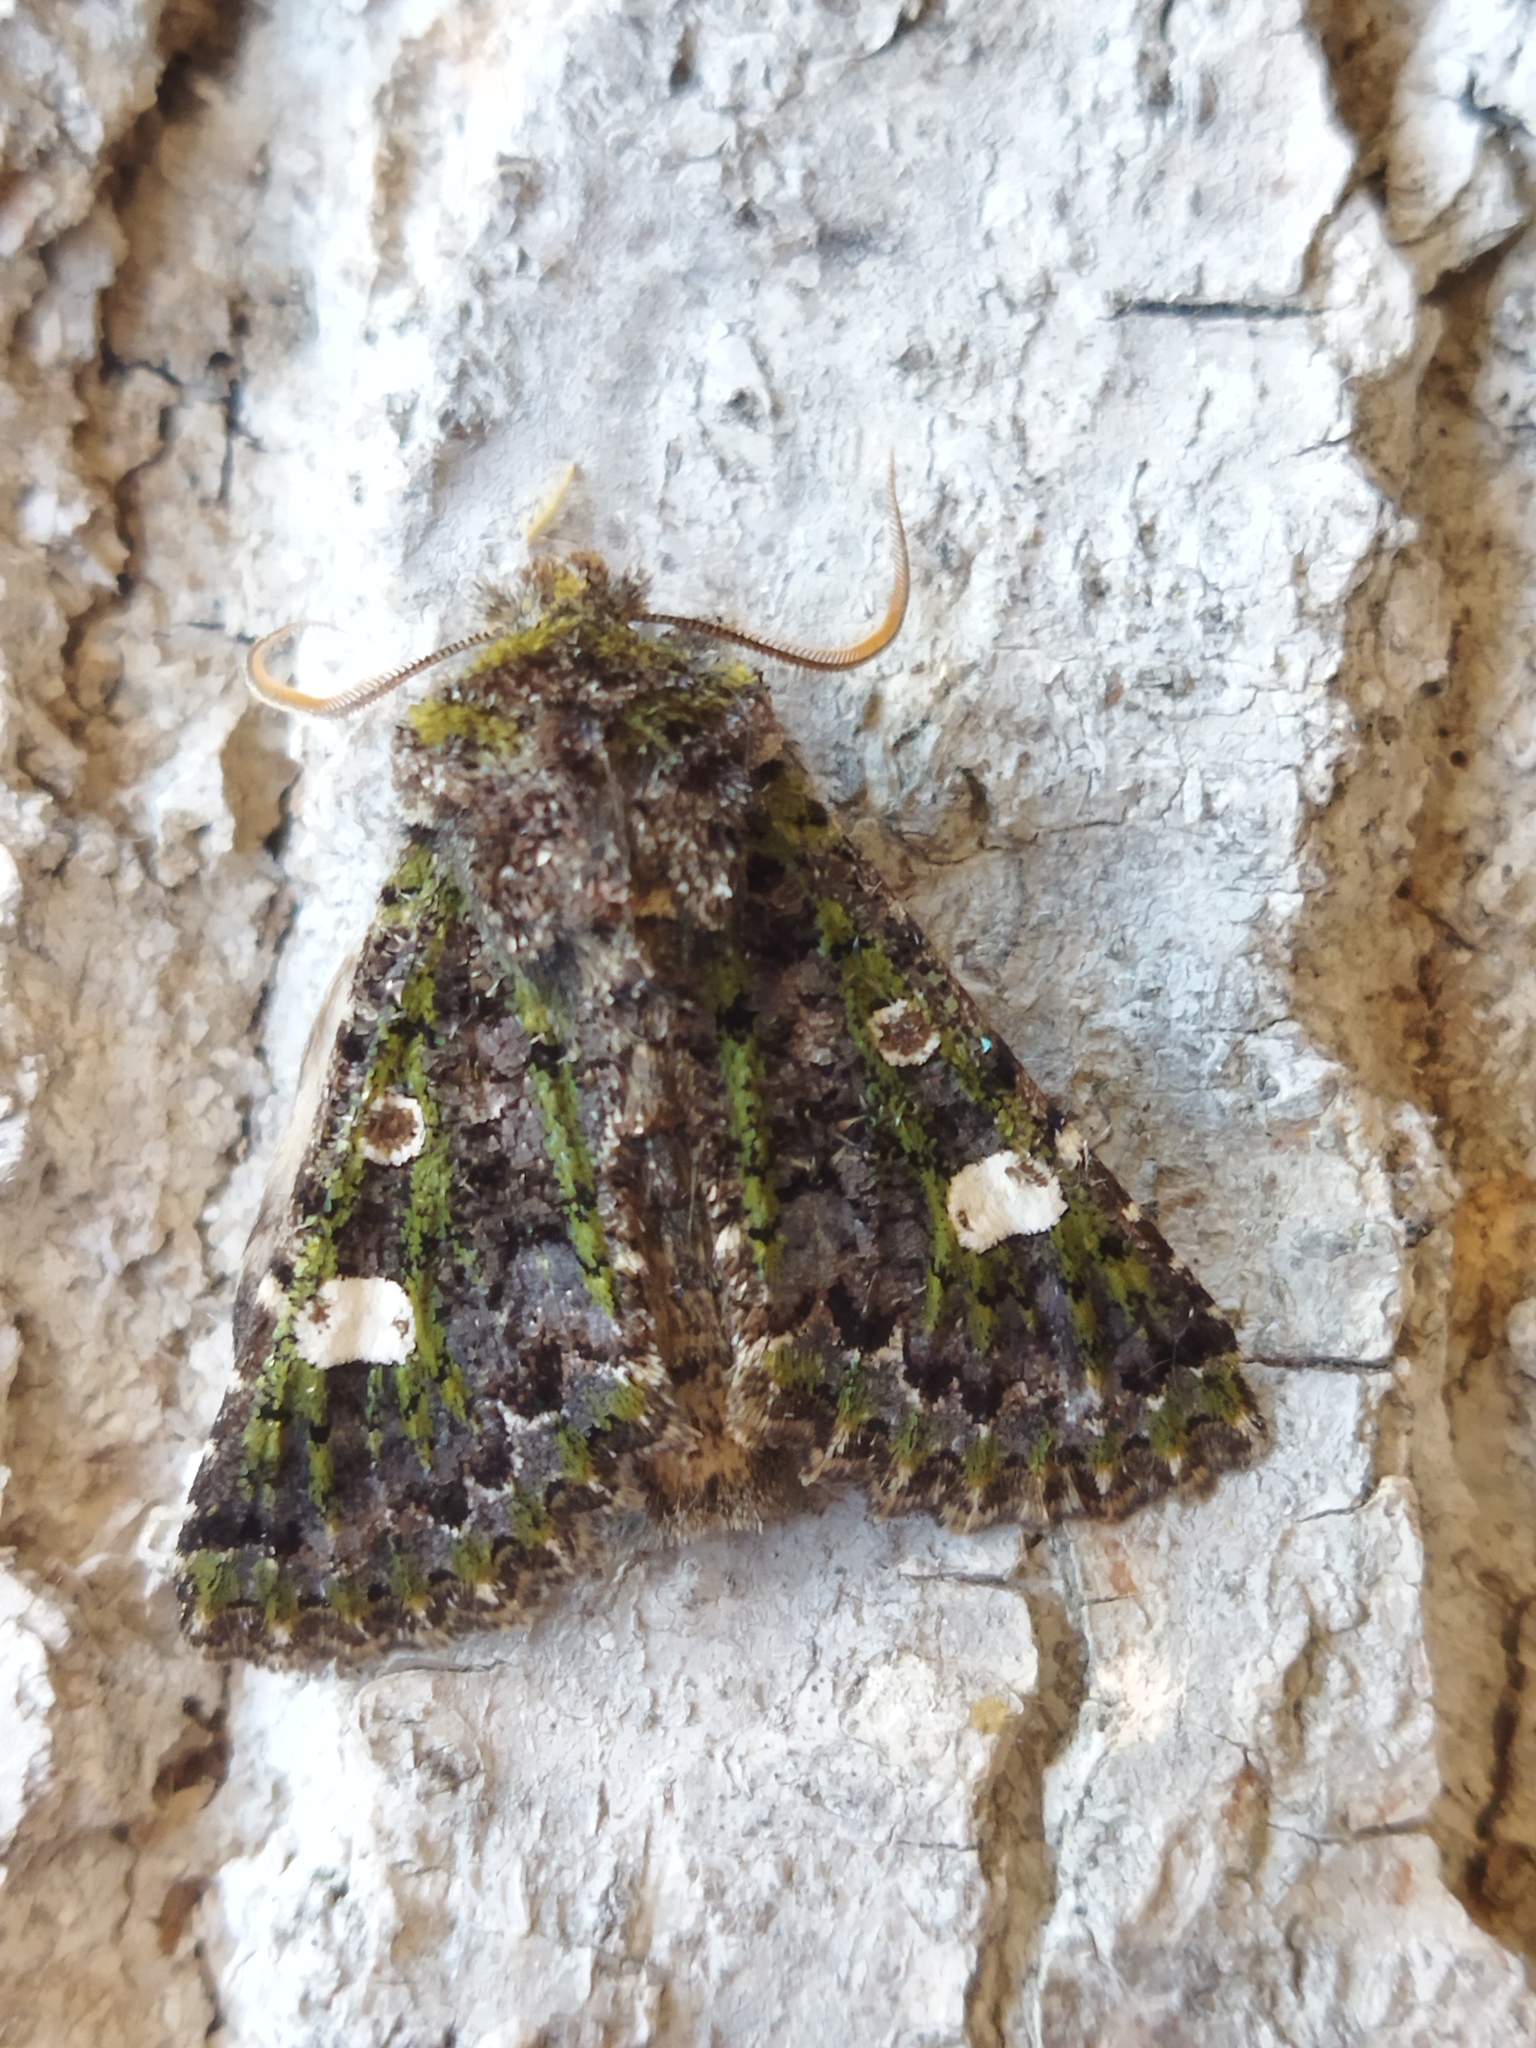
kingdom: Animalia
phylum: Arthropoda
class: Insecta
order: Lepidoptera
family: Noctuidae
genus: Valeria
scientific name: Valeria oleagina
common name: Green-brindled dot
